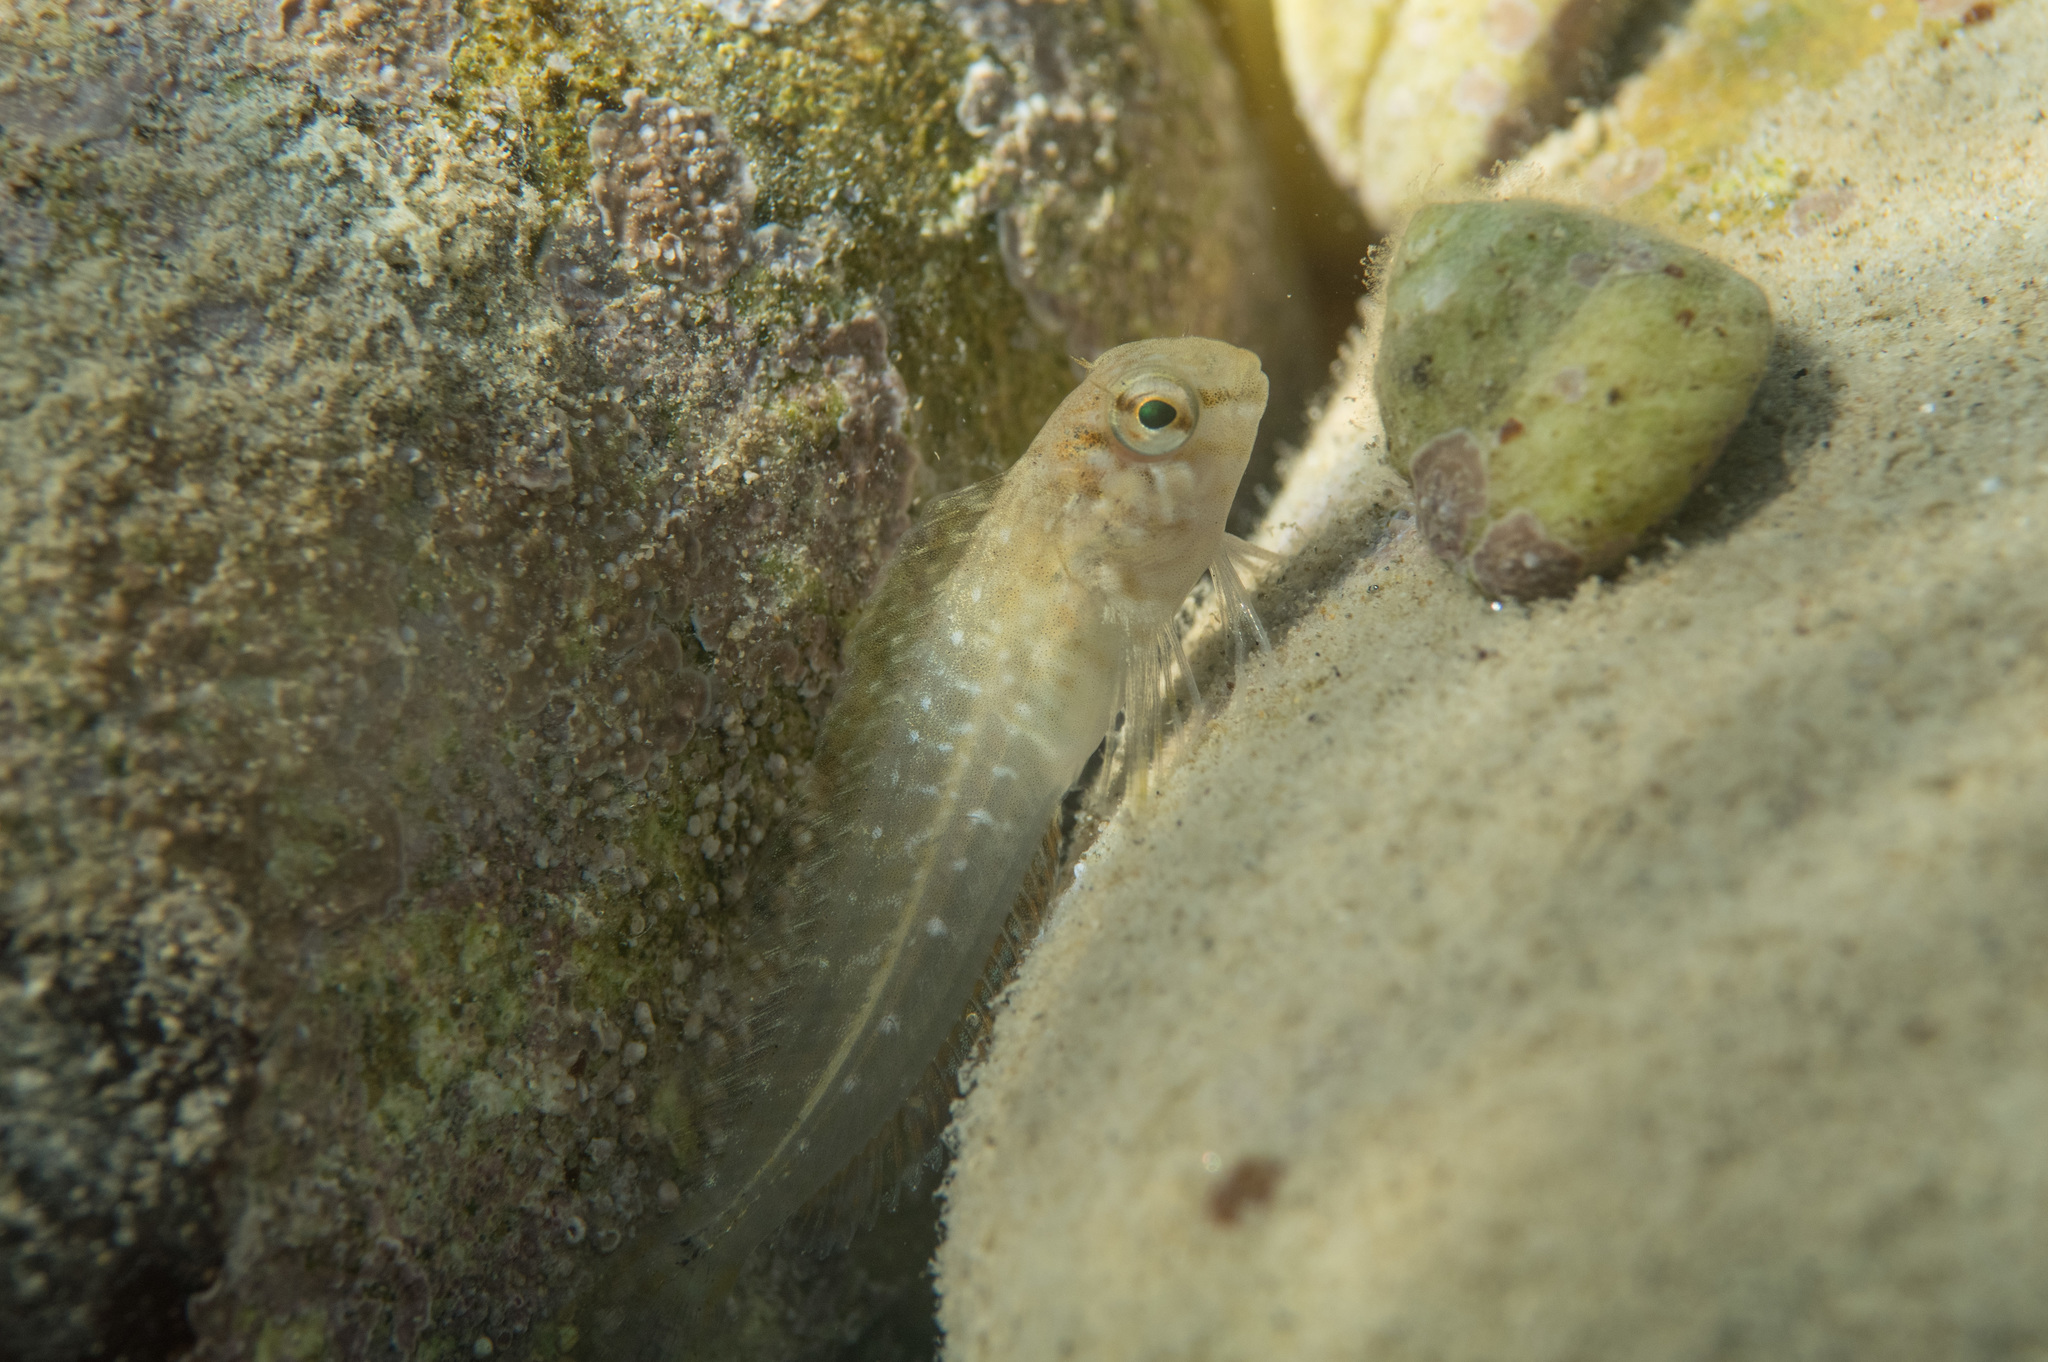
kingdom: Animalia
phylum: Chordata
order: Perciformes
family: Blenniidae
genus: Parablennius
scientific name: Parablennius sanguinolentus
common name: Black sea blenny
